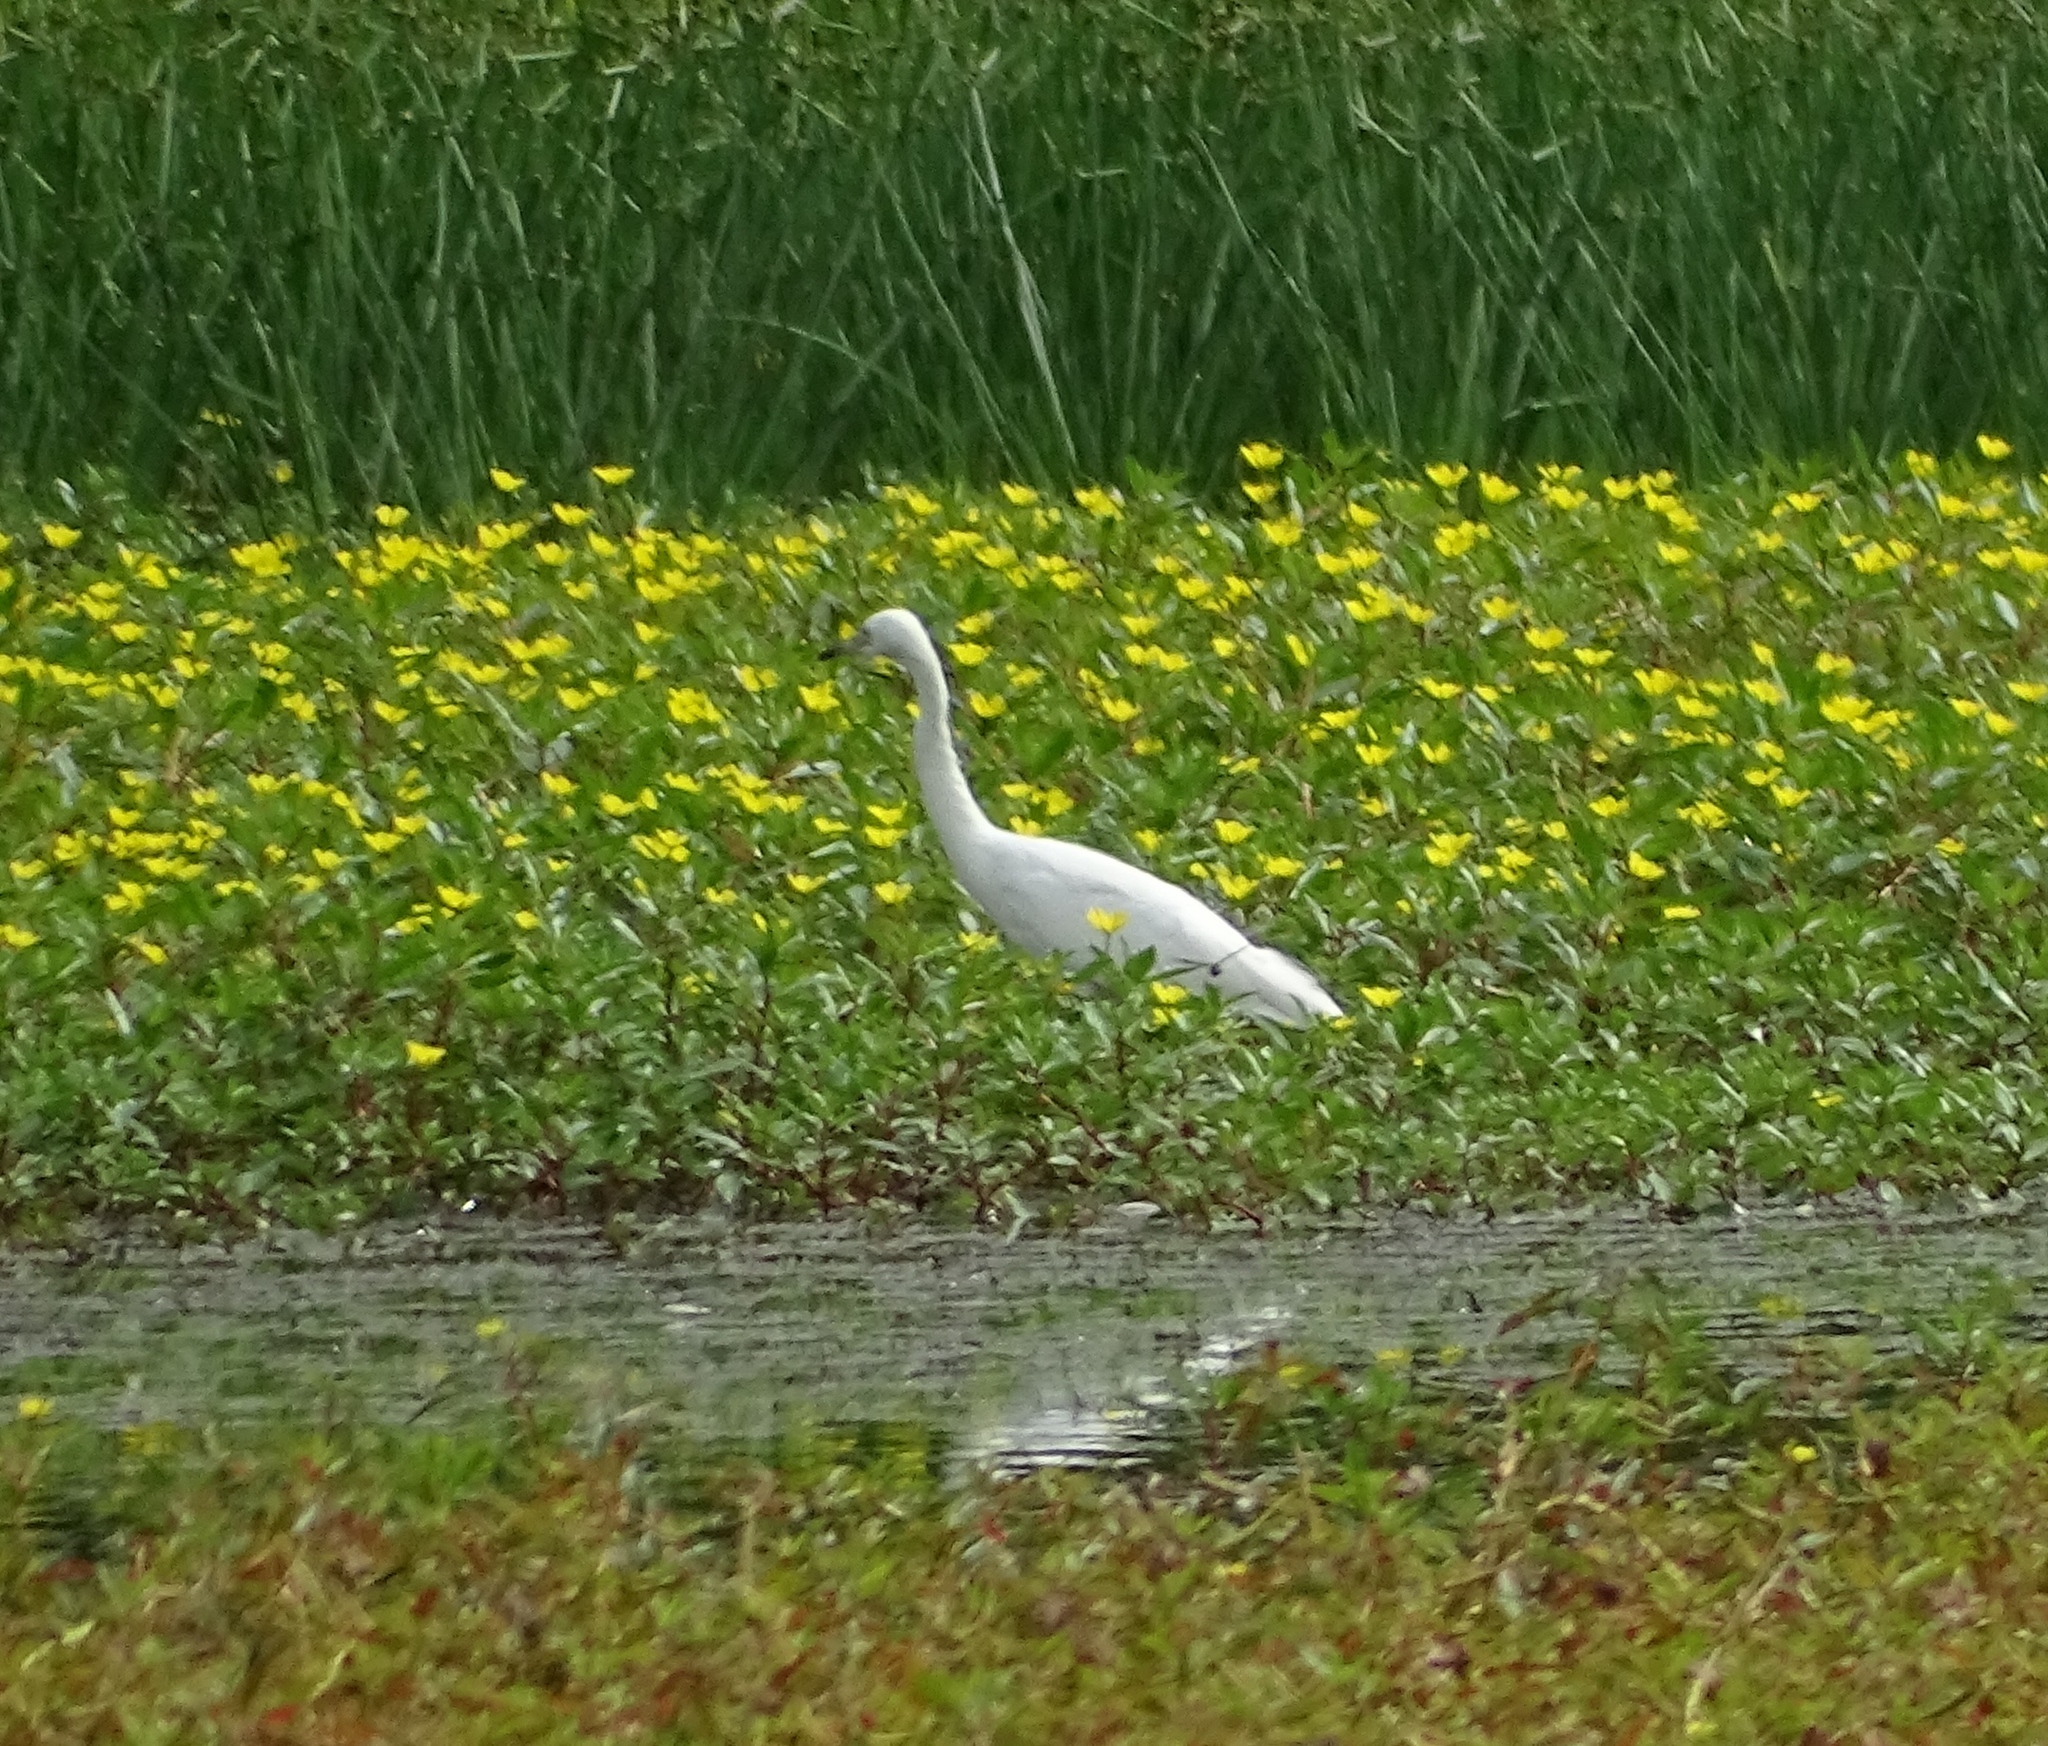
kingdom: Animalia
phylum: Chordata
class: Aves
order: Pelecaniformes
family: Ardeidae
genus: Egretta
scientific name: Egretta caerulea
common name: Little blue heron
